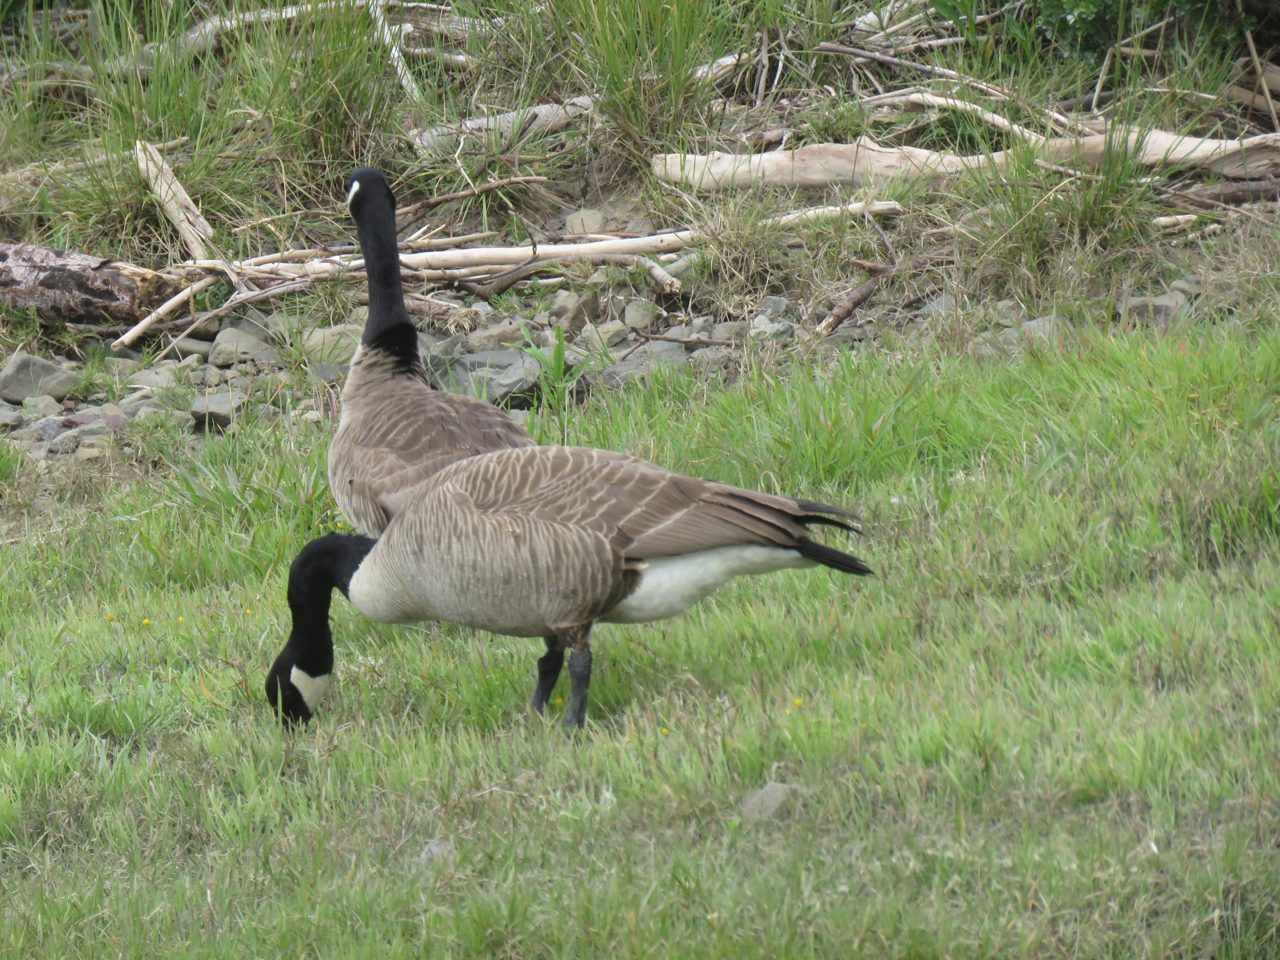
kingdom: Animalia
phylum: Chordata
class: Aves
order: Anseriformes
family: Anatidae
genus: Branta
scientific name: Branta canadensis
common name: Canada goose
